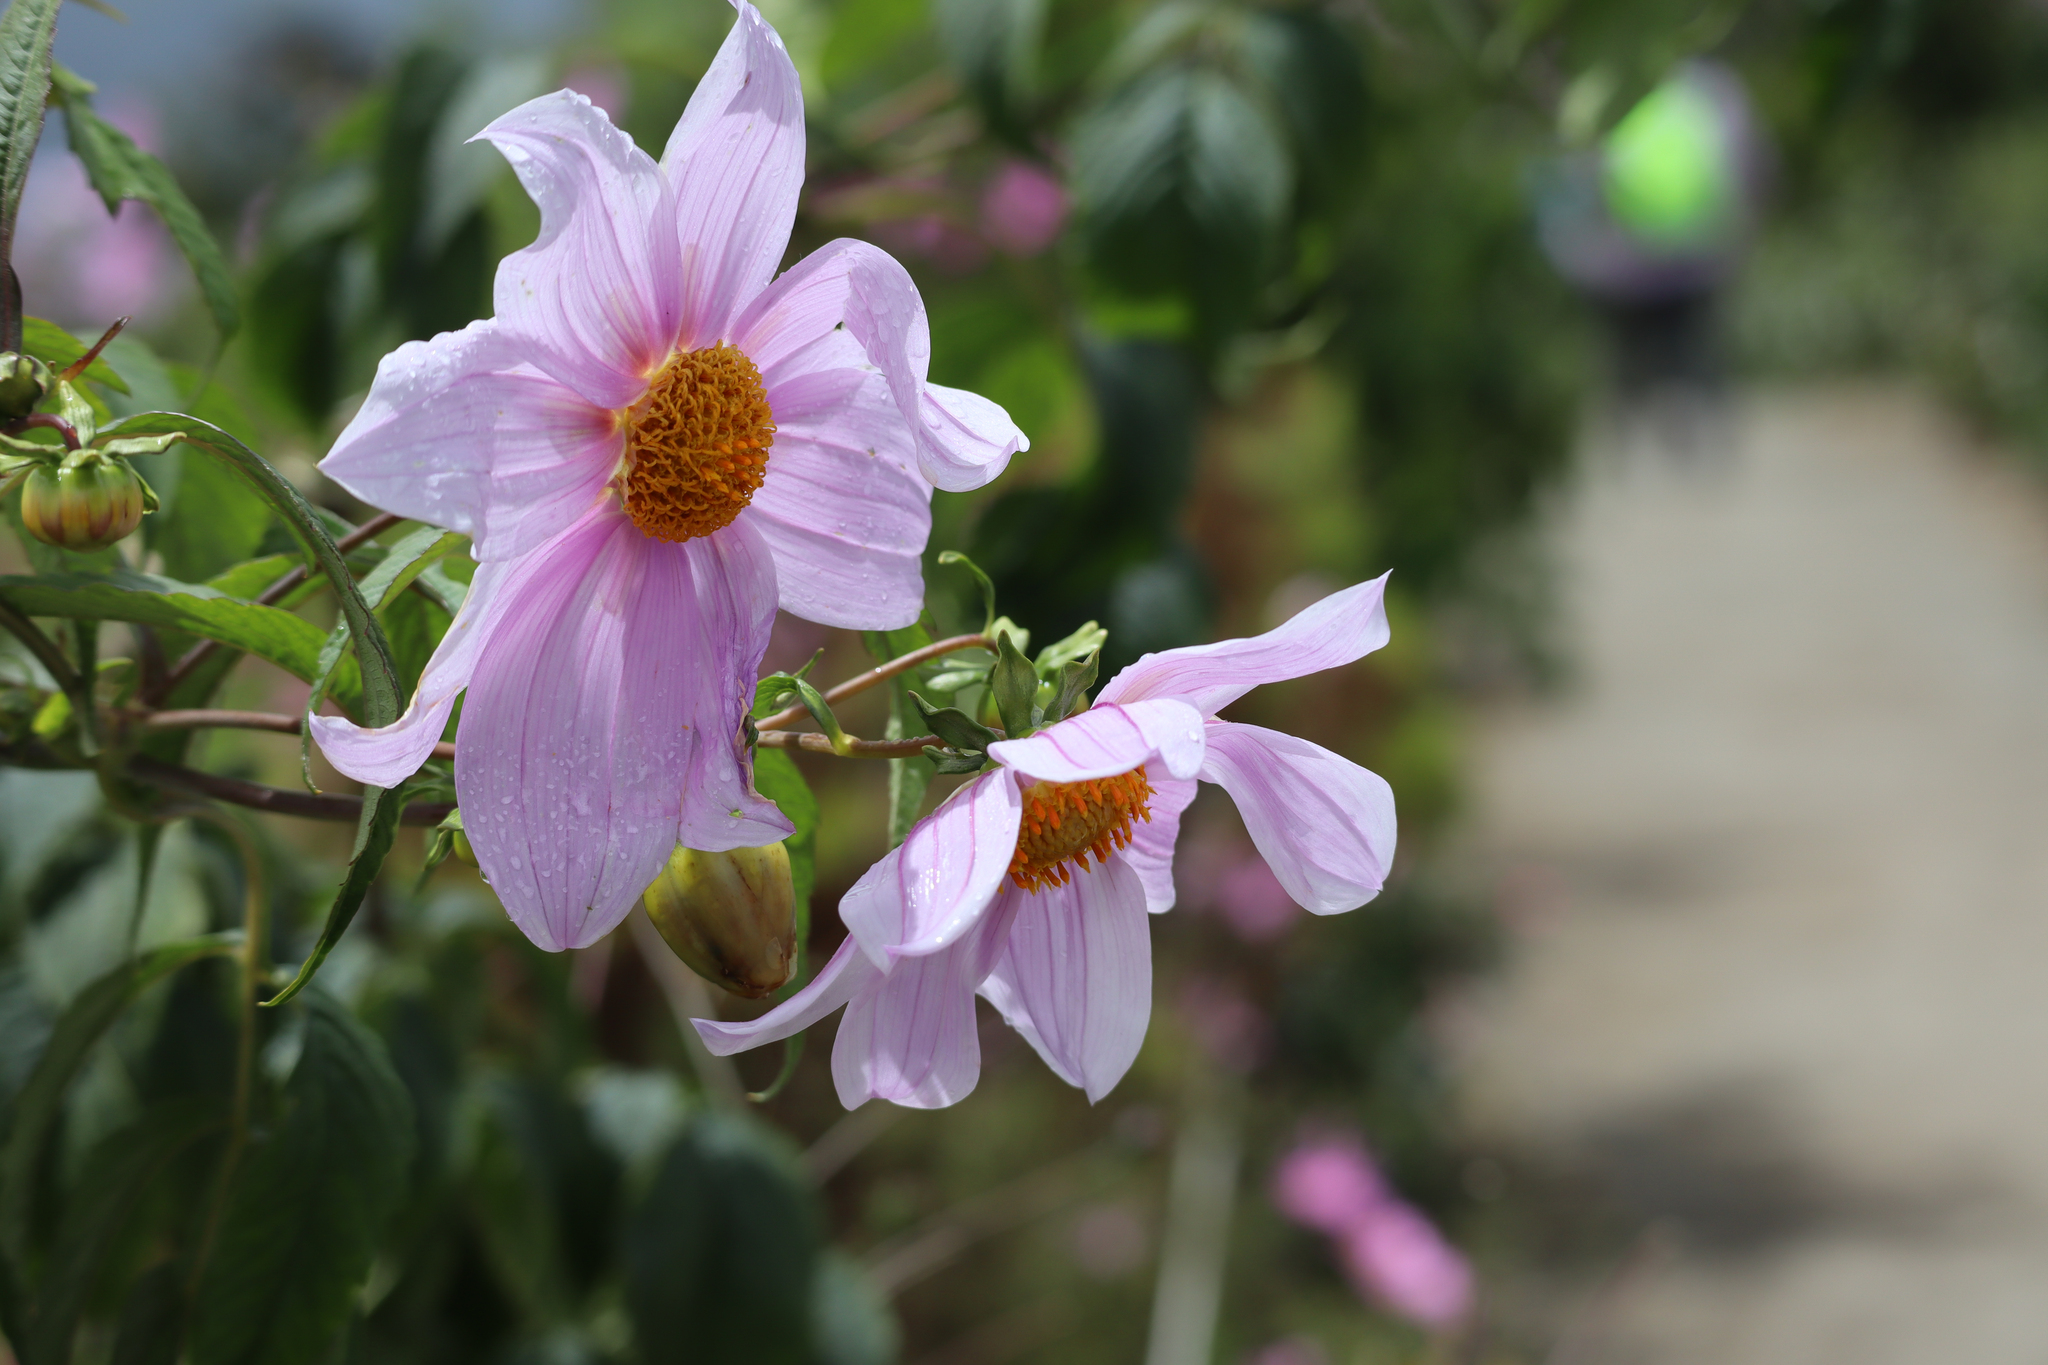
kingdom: Plantae
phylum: Tracheophyta
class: Magnoliopsida
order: Asterales
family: Asteraceae
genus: Dahlia
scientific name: Dahlia imperialis
